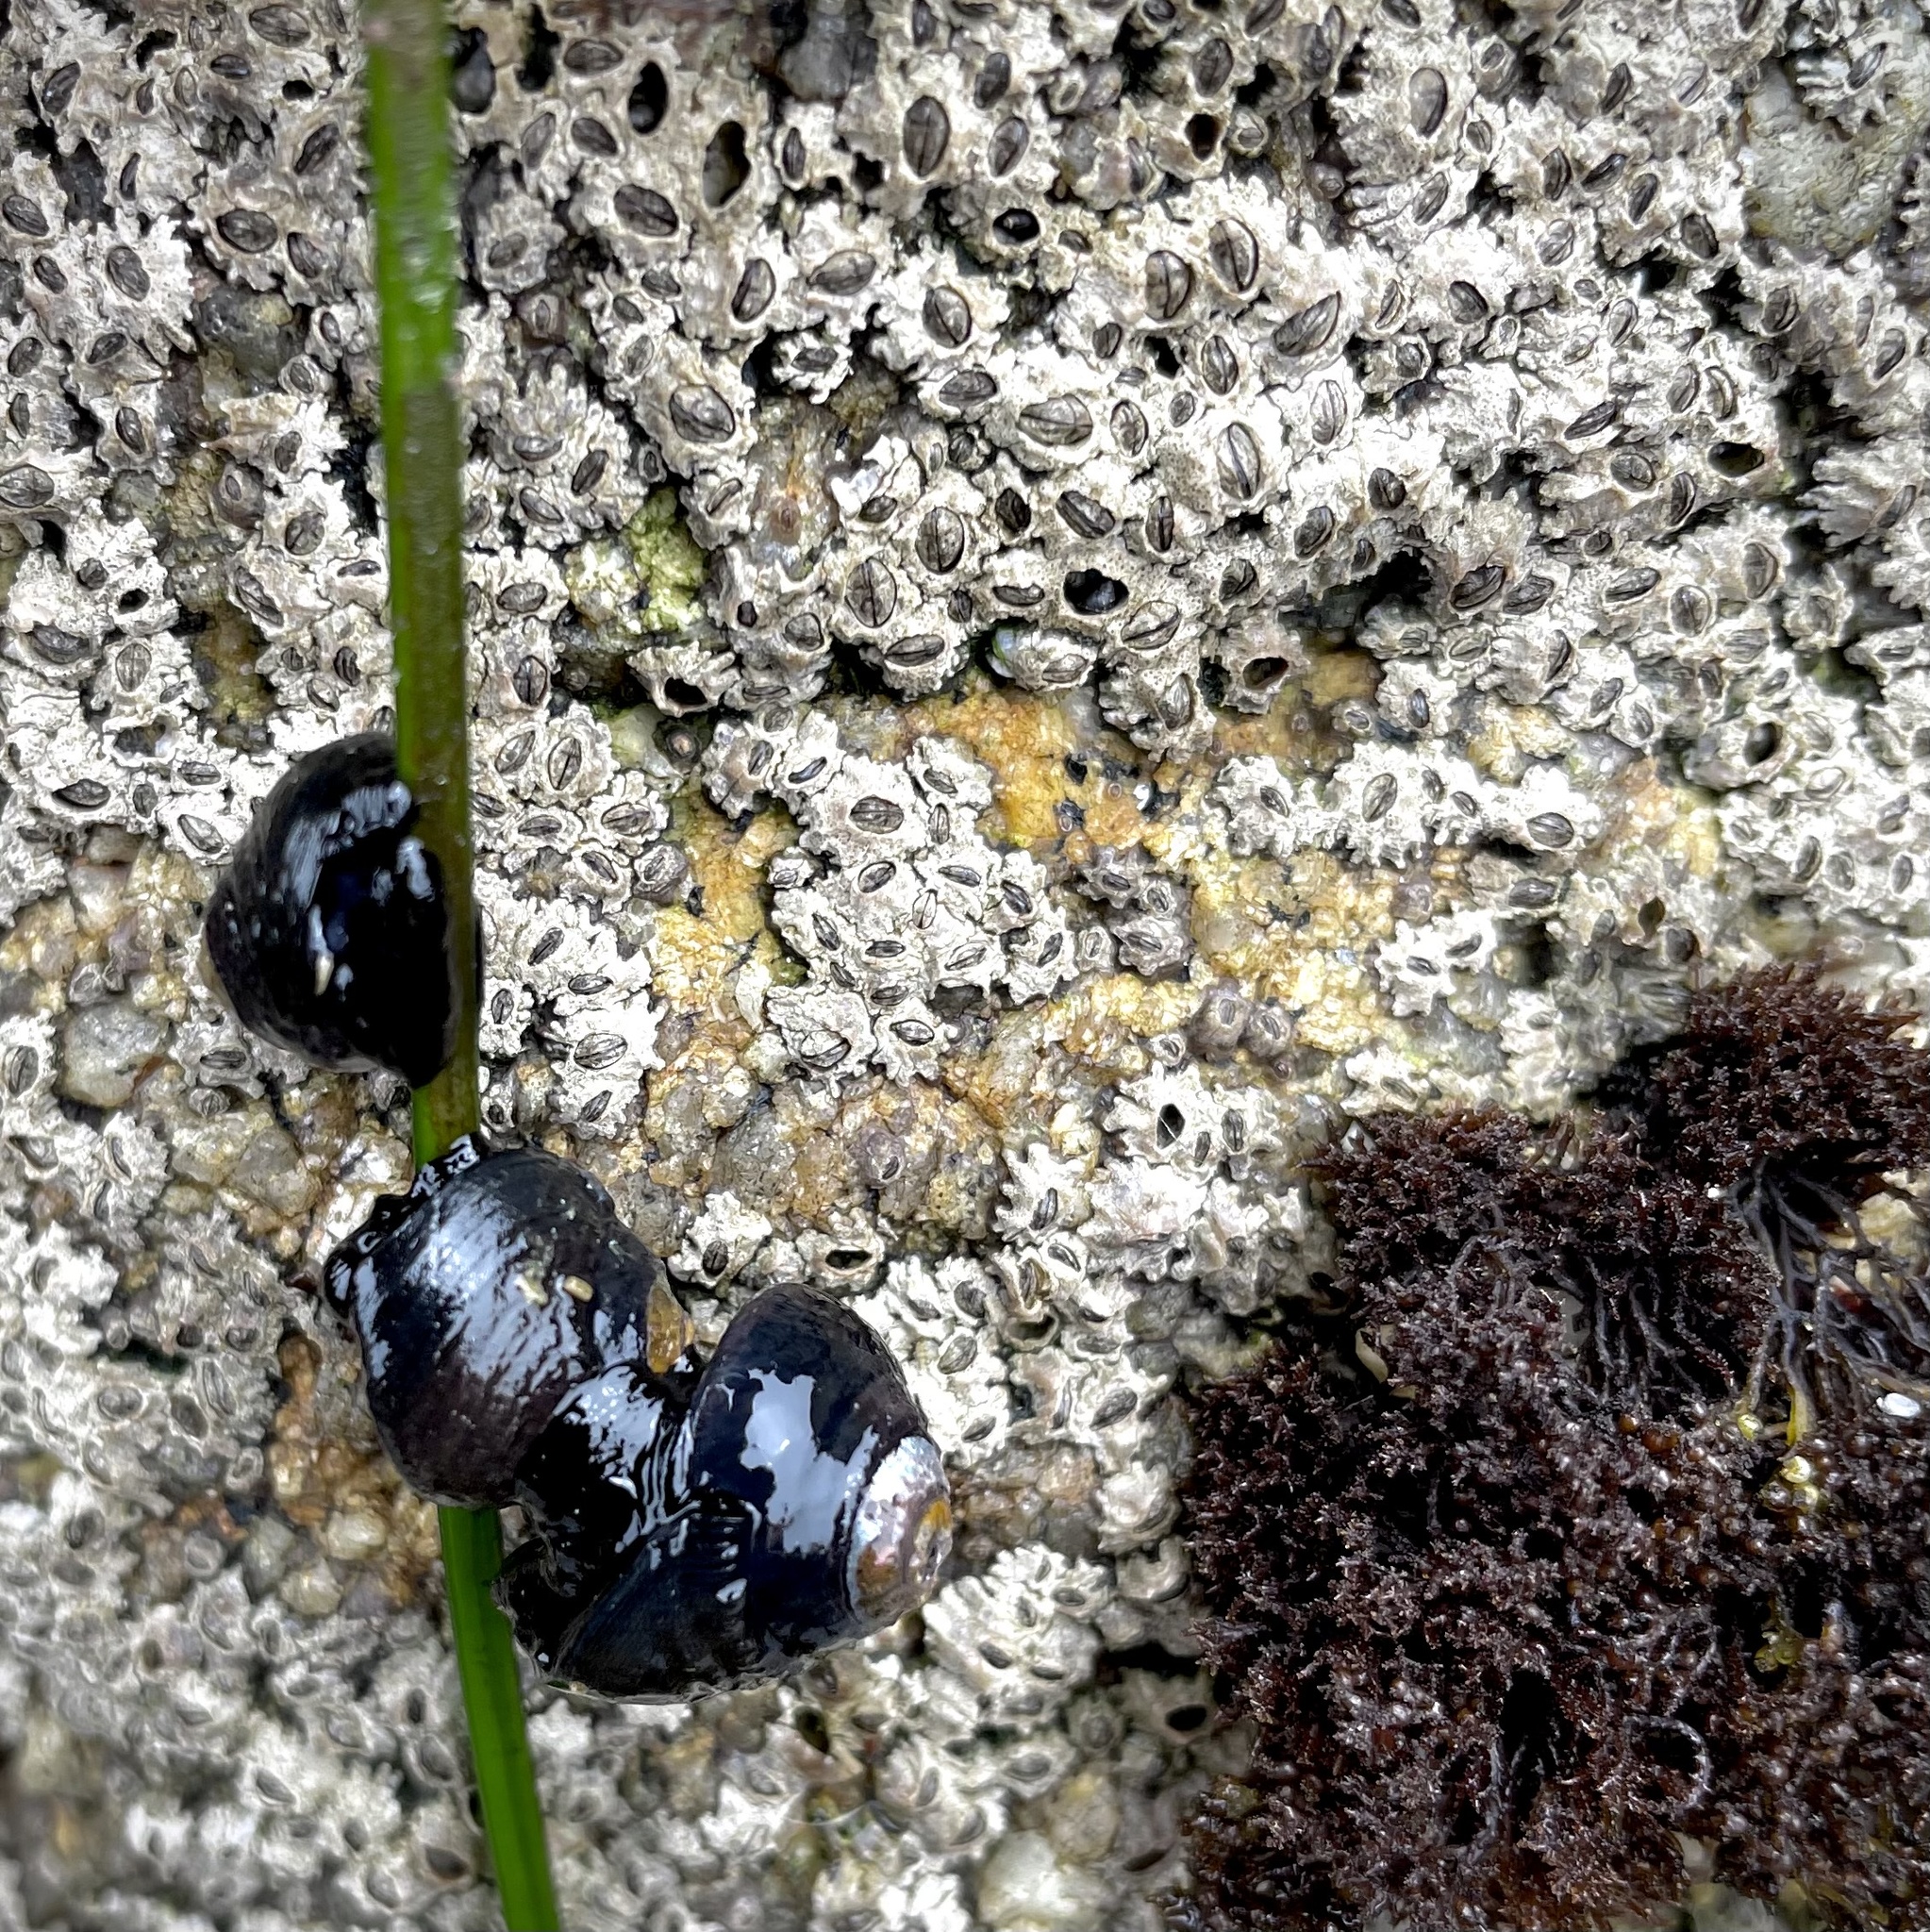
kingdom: Animalia
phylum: Mollusca
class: Gastropoda
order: Trochida
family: Tegulidae
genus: Tegula
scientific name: Tegula funebralis
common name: Black tegula
